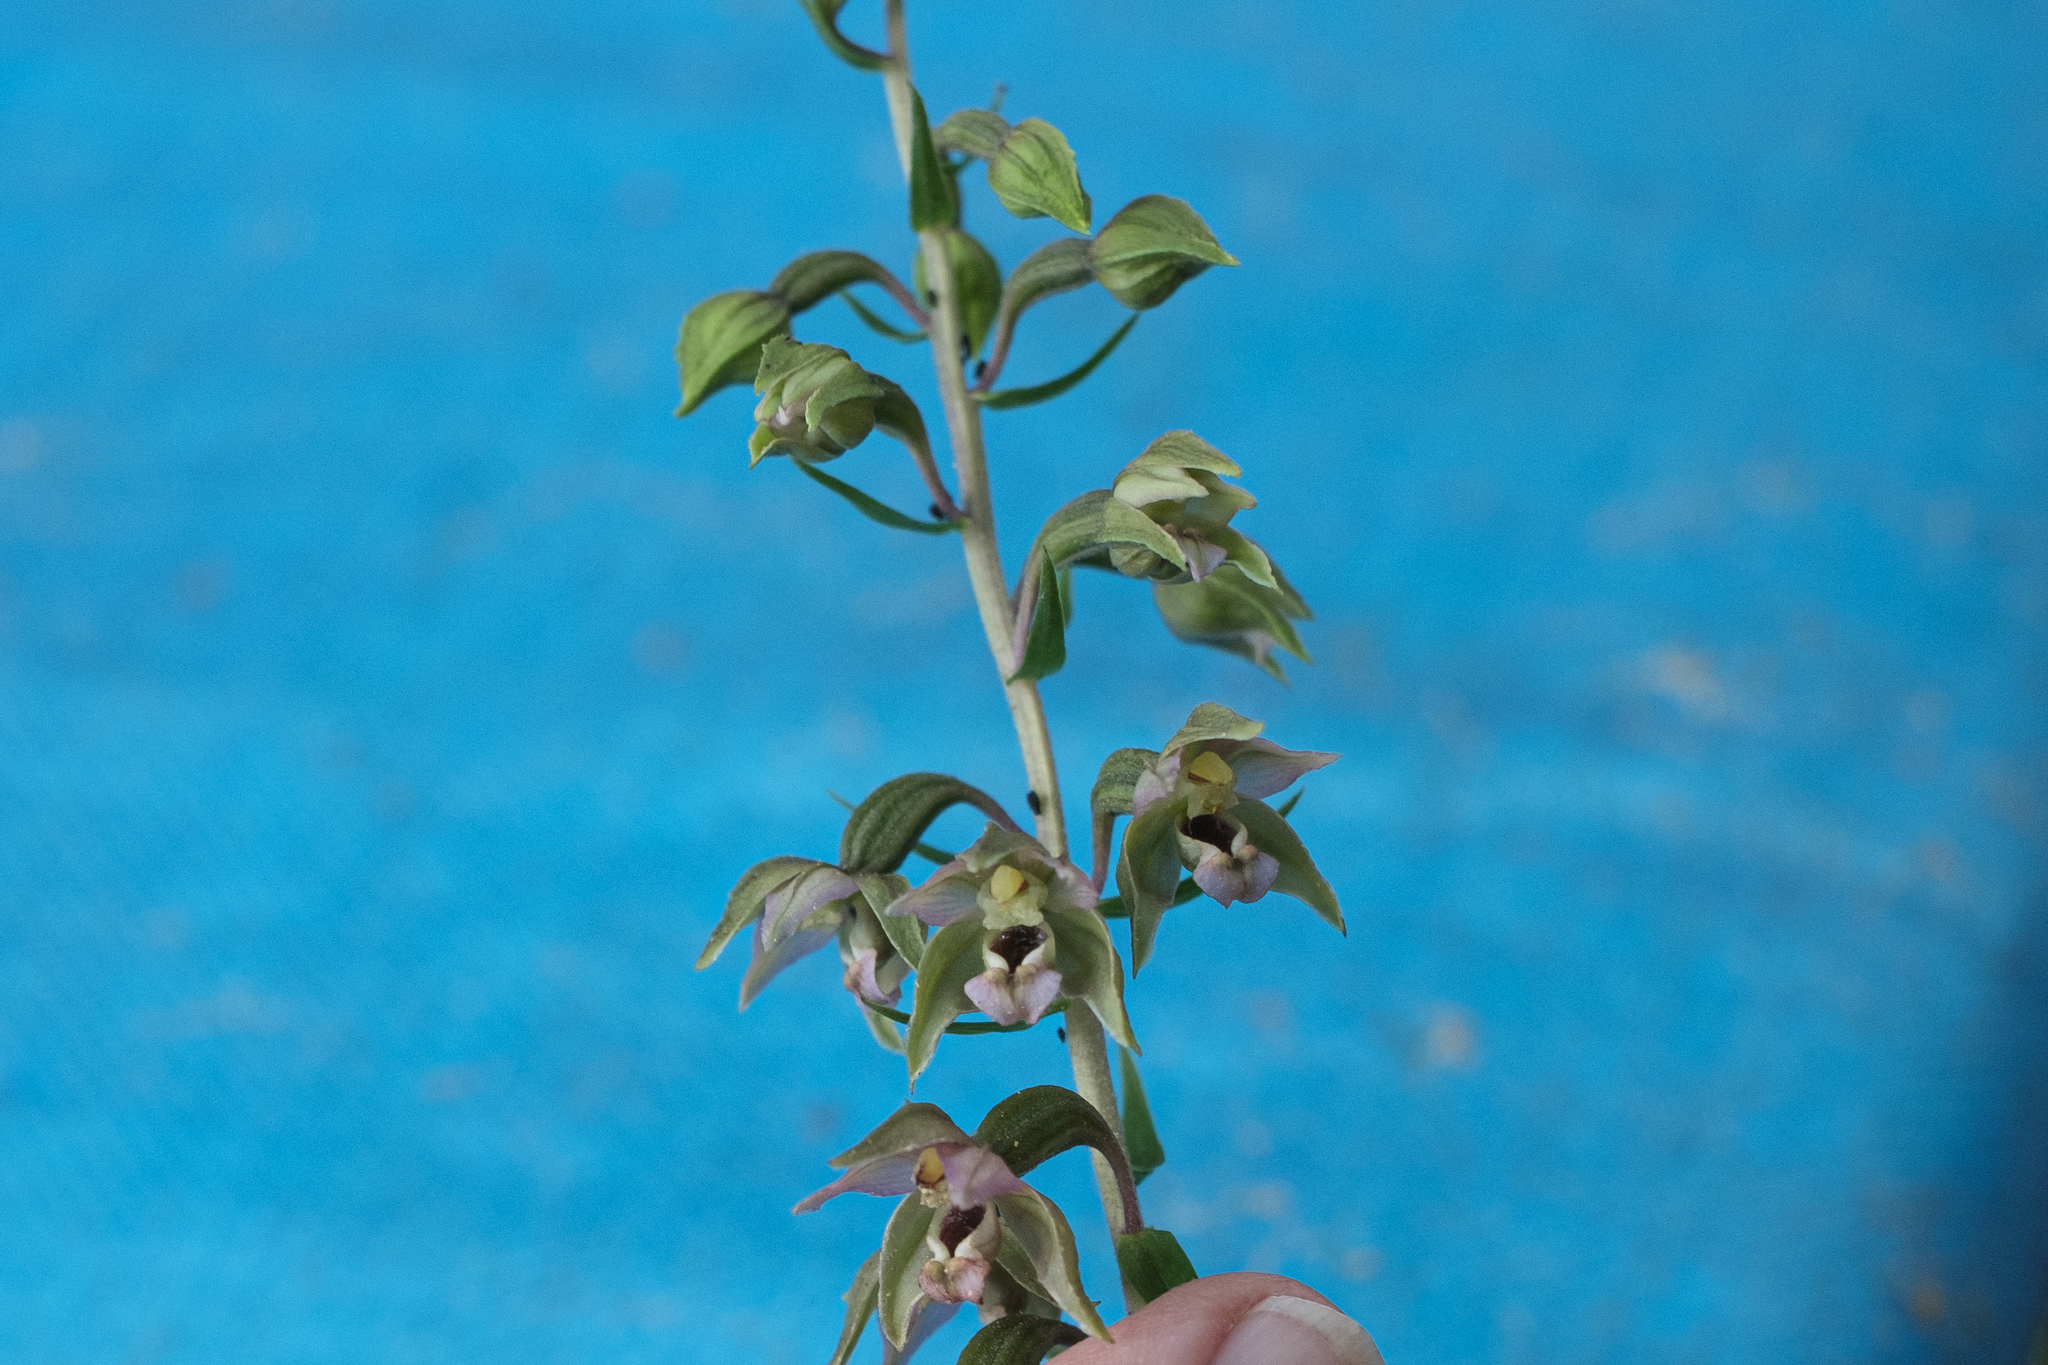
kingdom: Plantae
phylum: Tracheophyta
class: Liliopsida
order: Asparagales
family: Orchidaceae
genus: Epipactis
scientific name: Epipactis helleborine
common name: Broad-leaved helleborine
